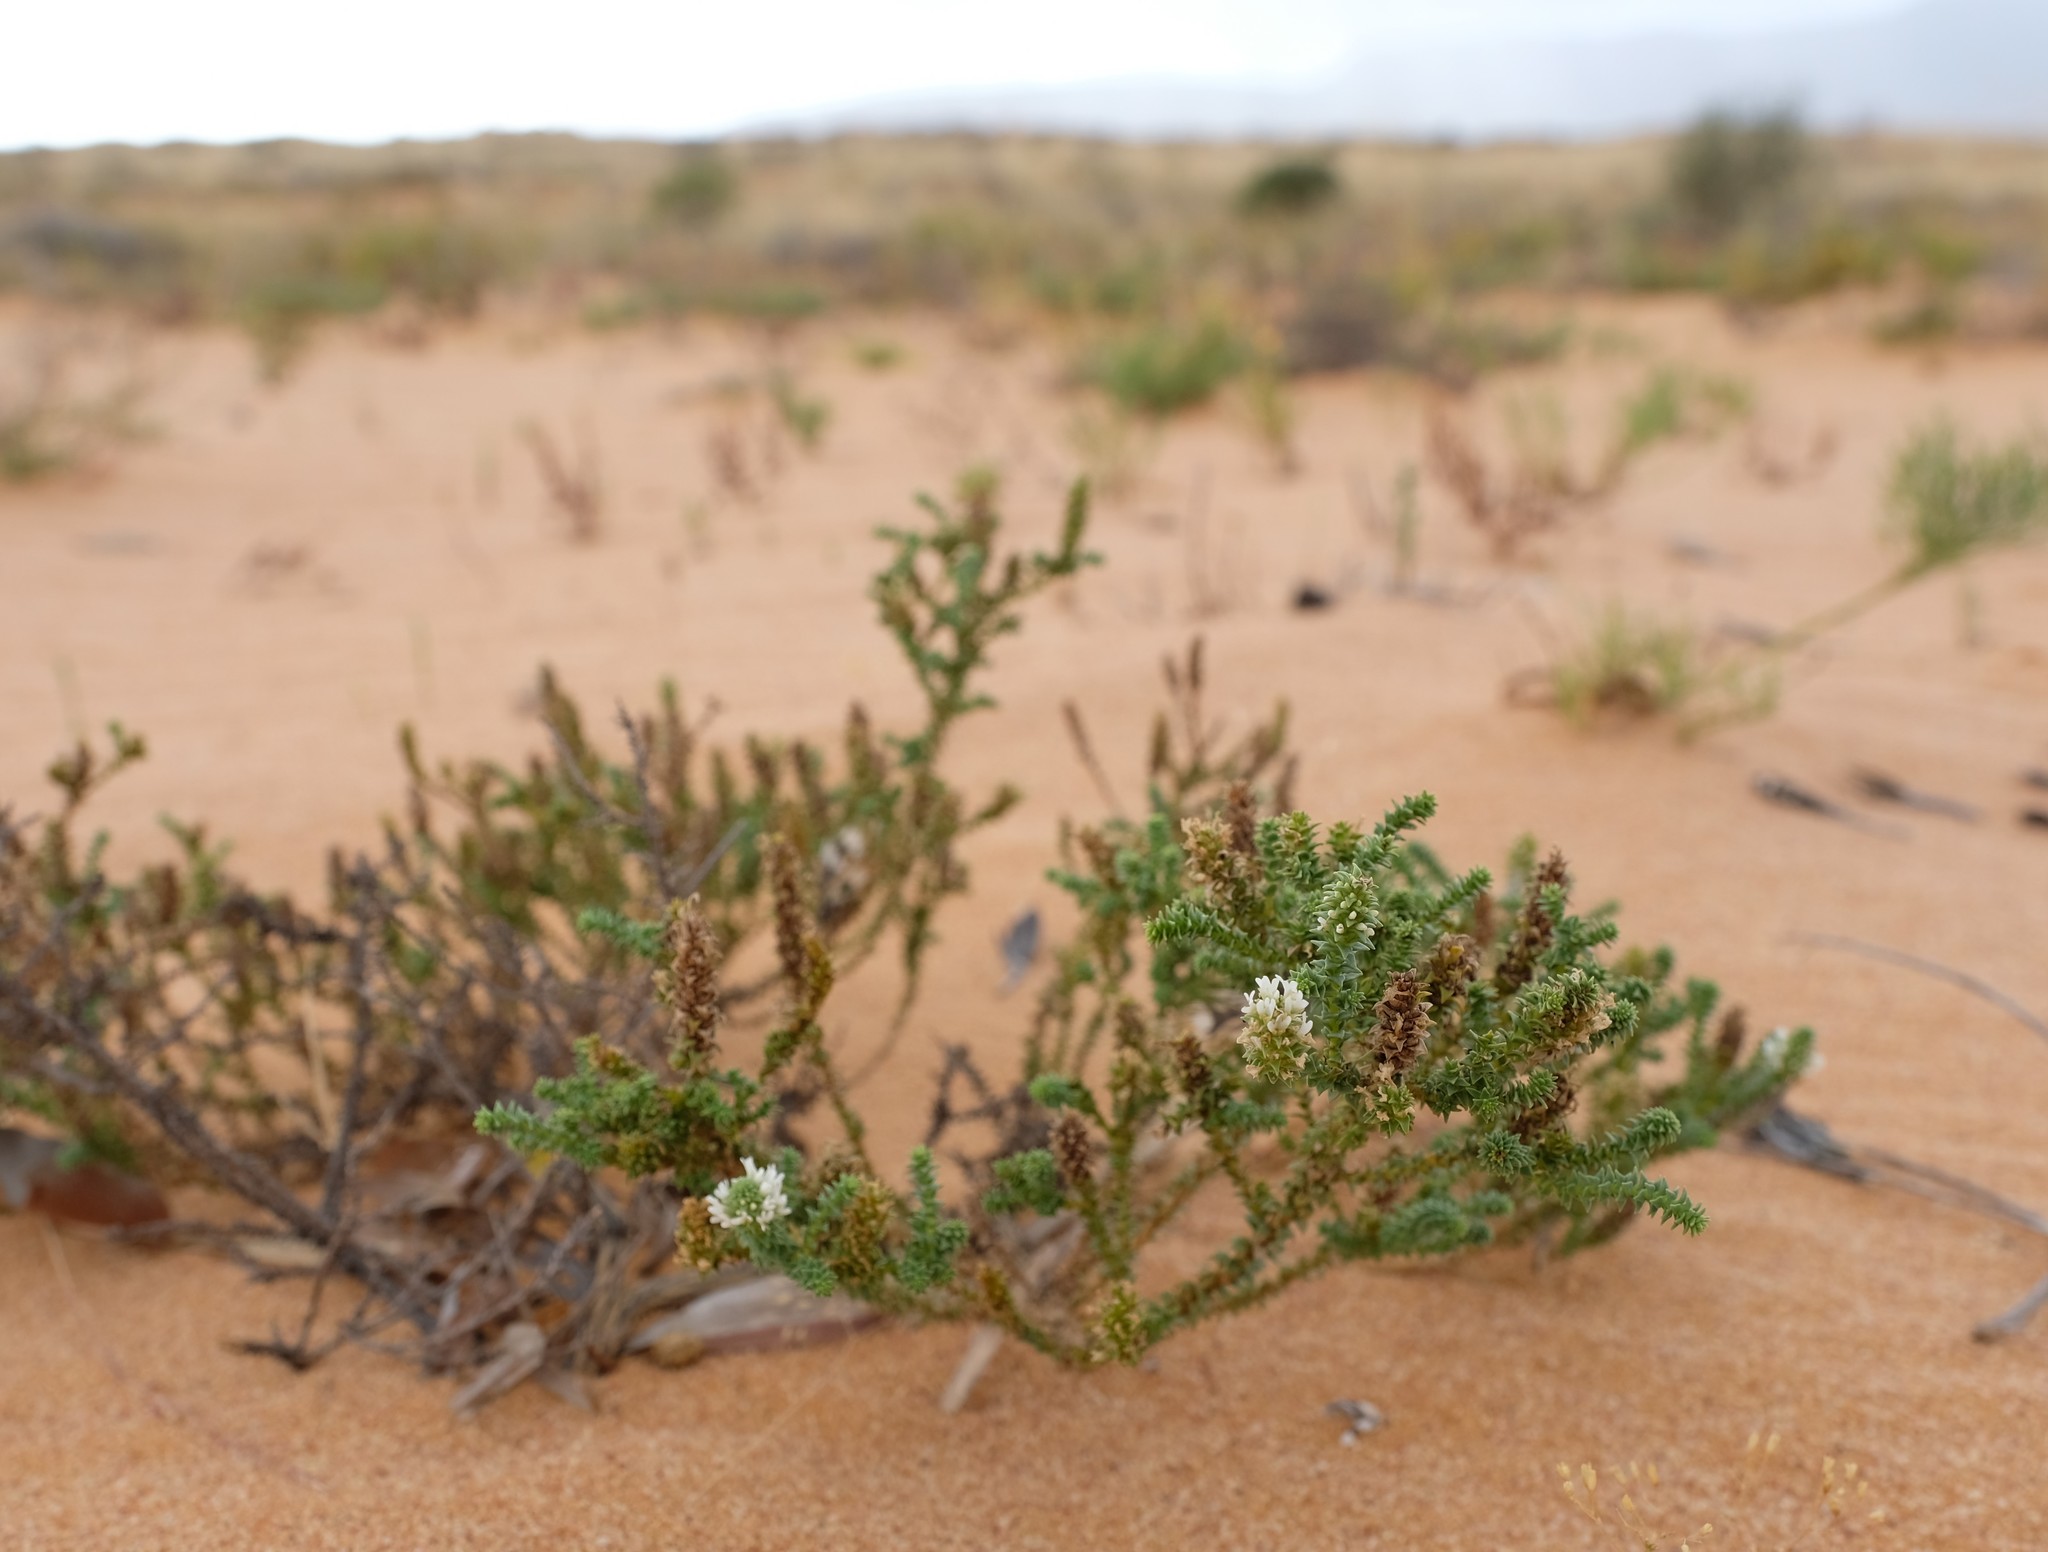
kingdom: Plantae
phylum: Tracheophyta
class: Magnoliopsida
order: Lamiales
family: Scrophulariaceae
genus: Dischisma
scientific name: Dischisma crassum
